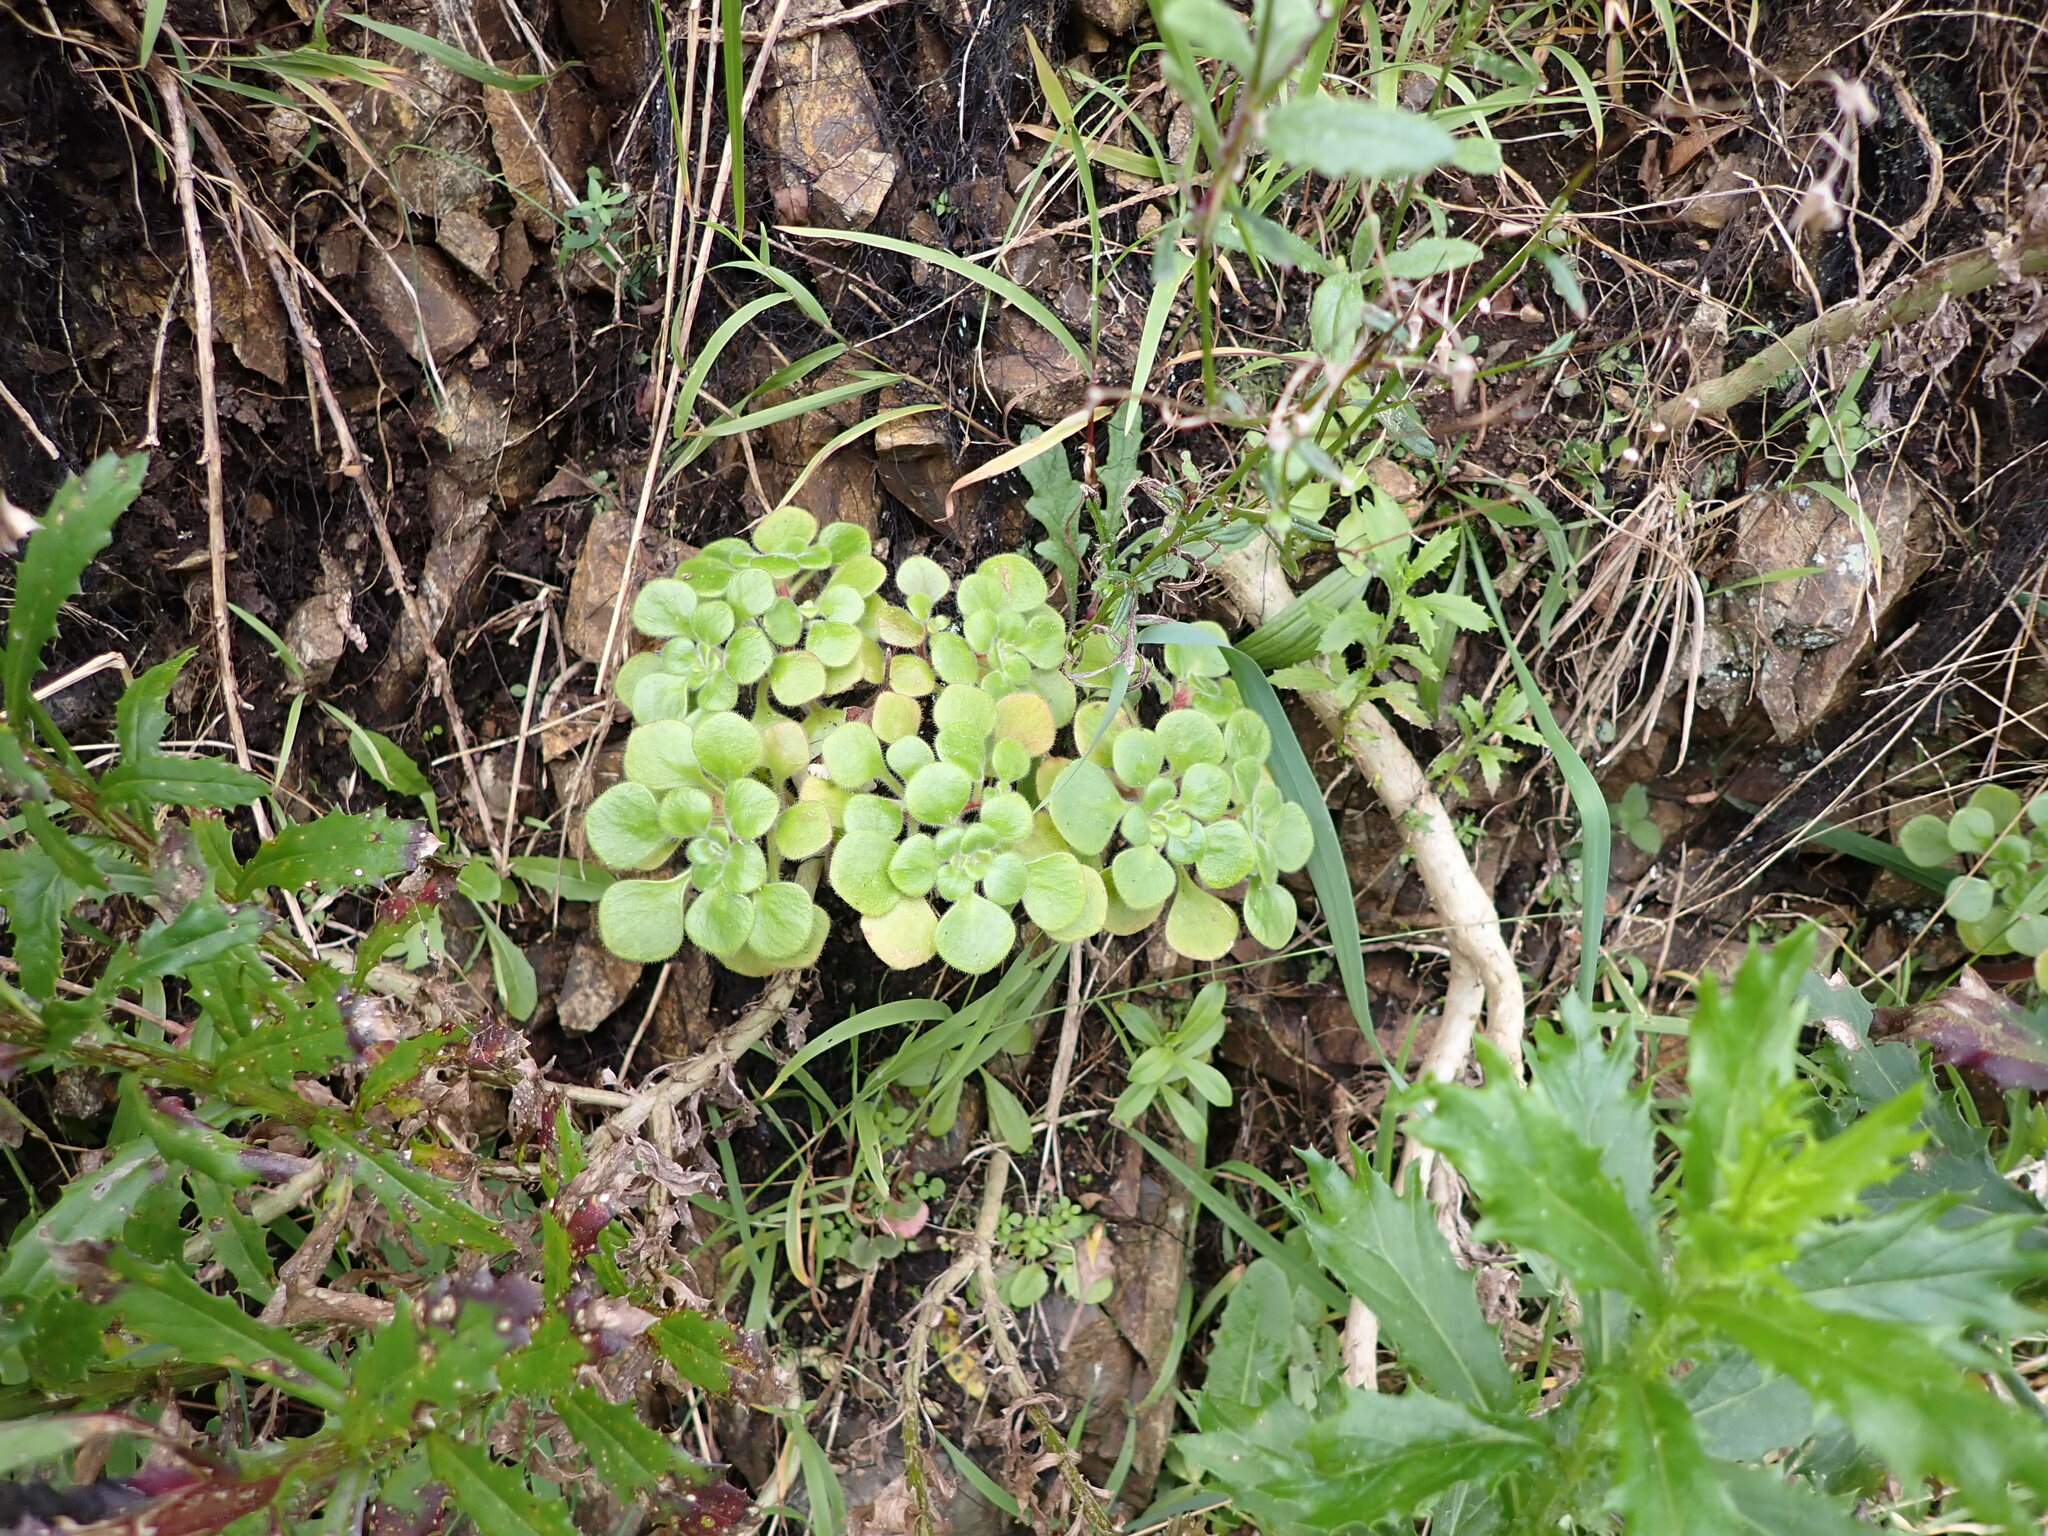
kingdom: Plantae
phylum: Tracheophyta
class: Magnoliopsida
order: Saxifragales
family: Crassulaceae
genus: Aichryson
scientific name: Aichryson laxum
